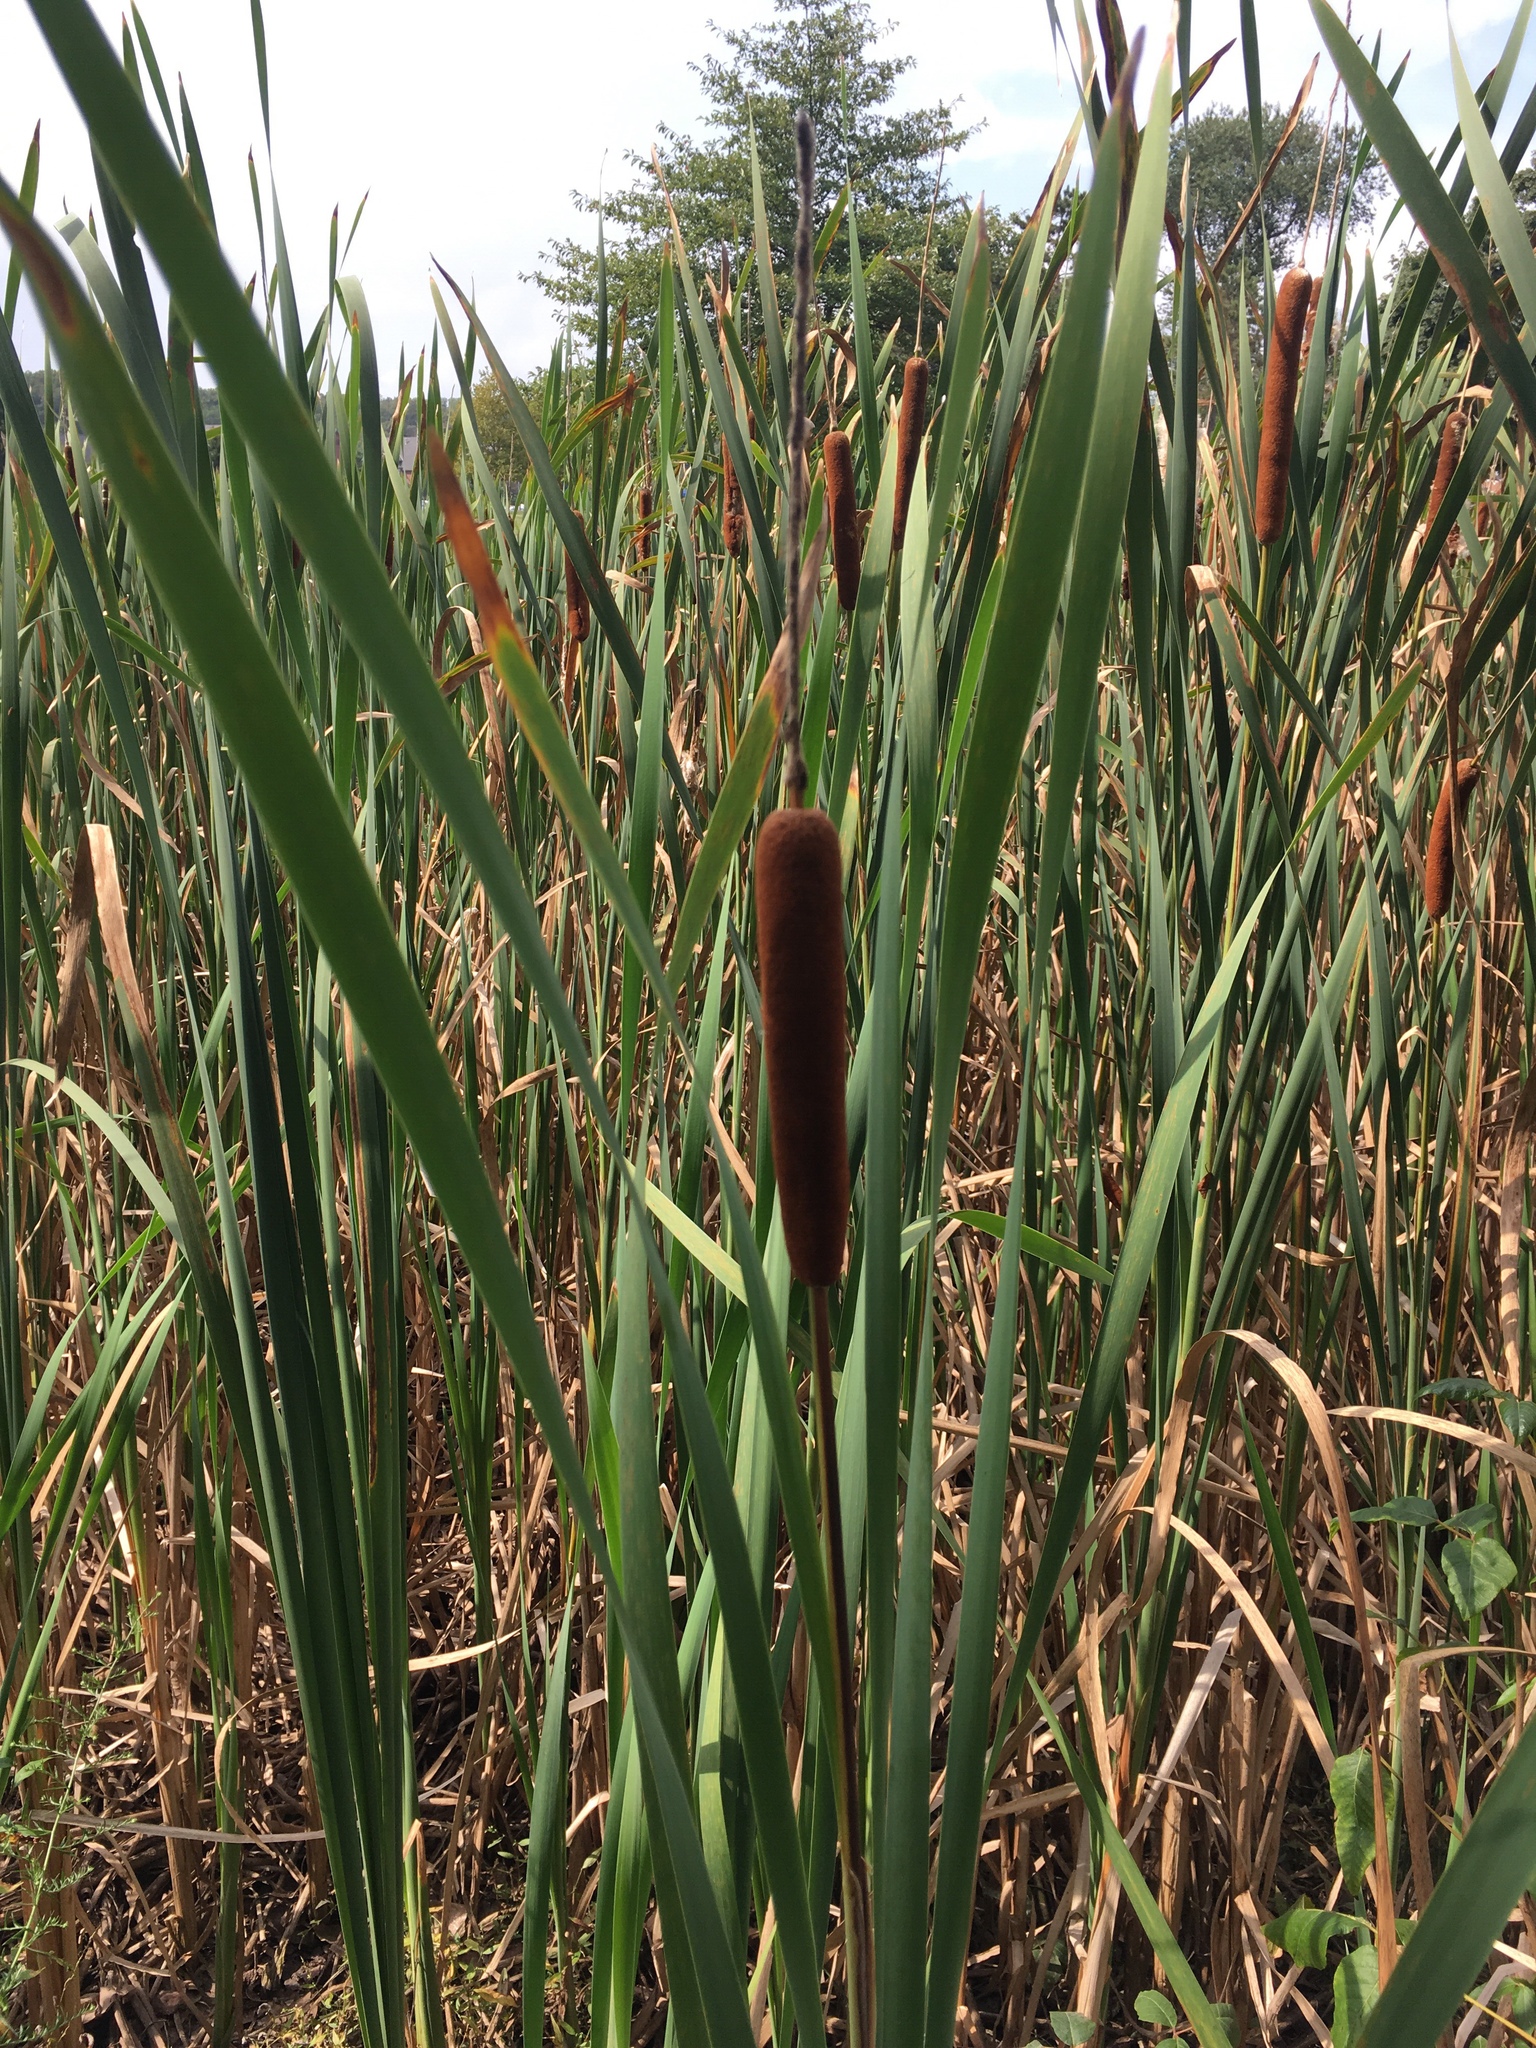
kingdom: Plantae
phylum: Tracheophyta
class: Liliopsida
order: Poales
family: Typhaceae
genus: Typha
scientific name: Typha latifolia
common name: Broadleaf cattail
